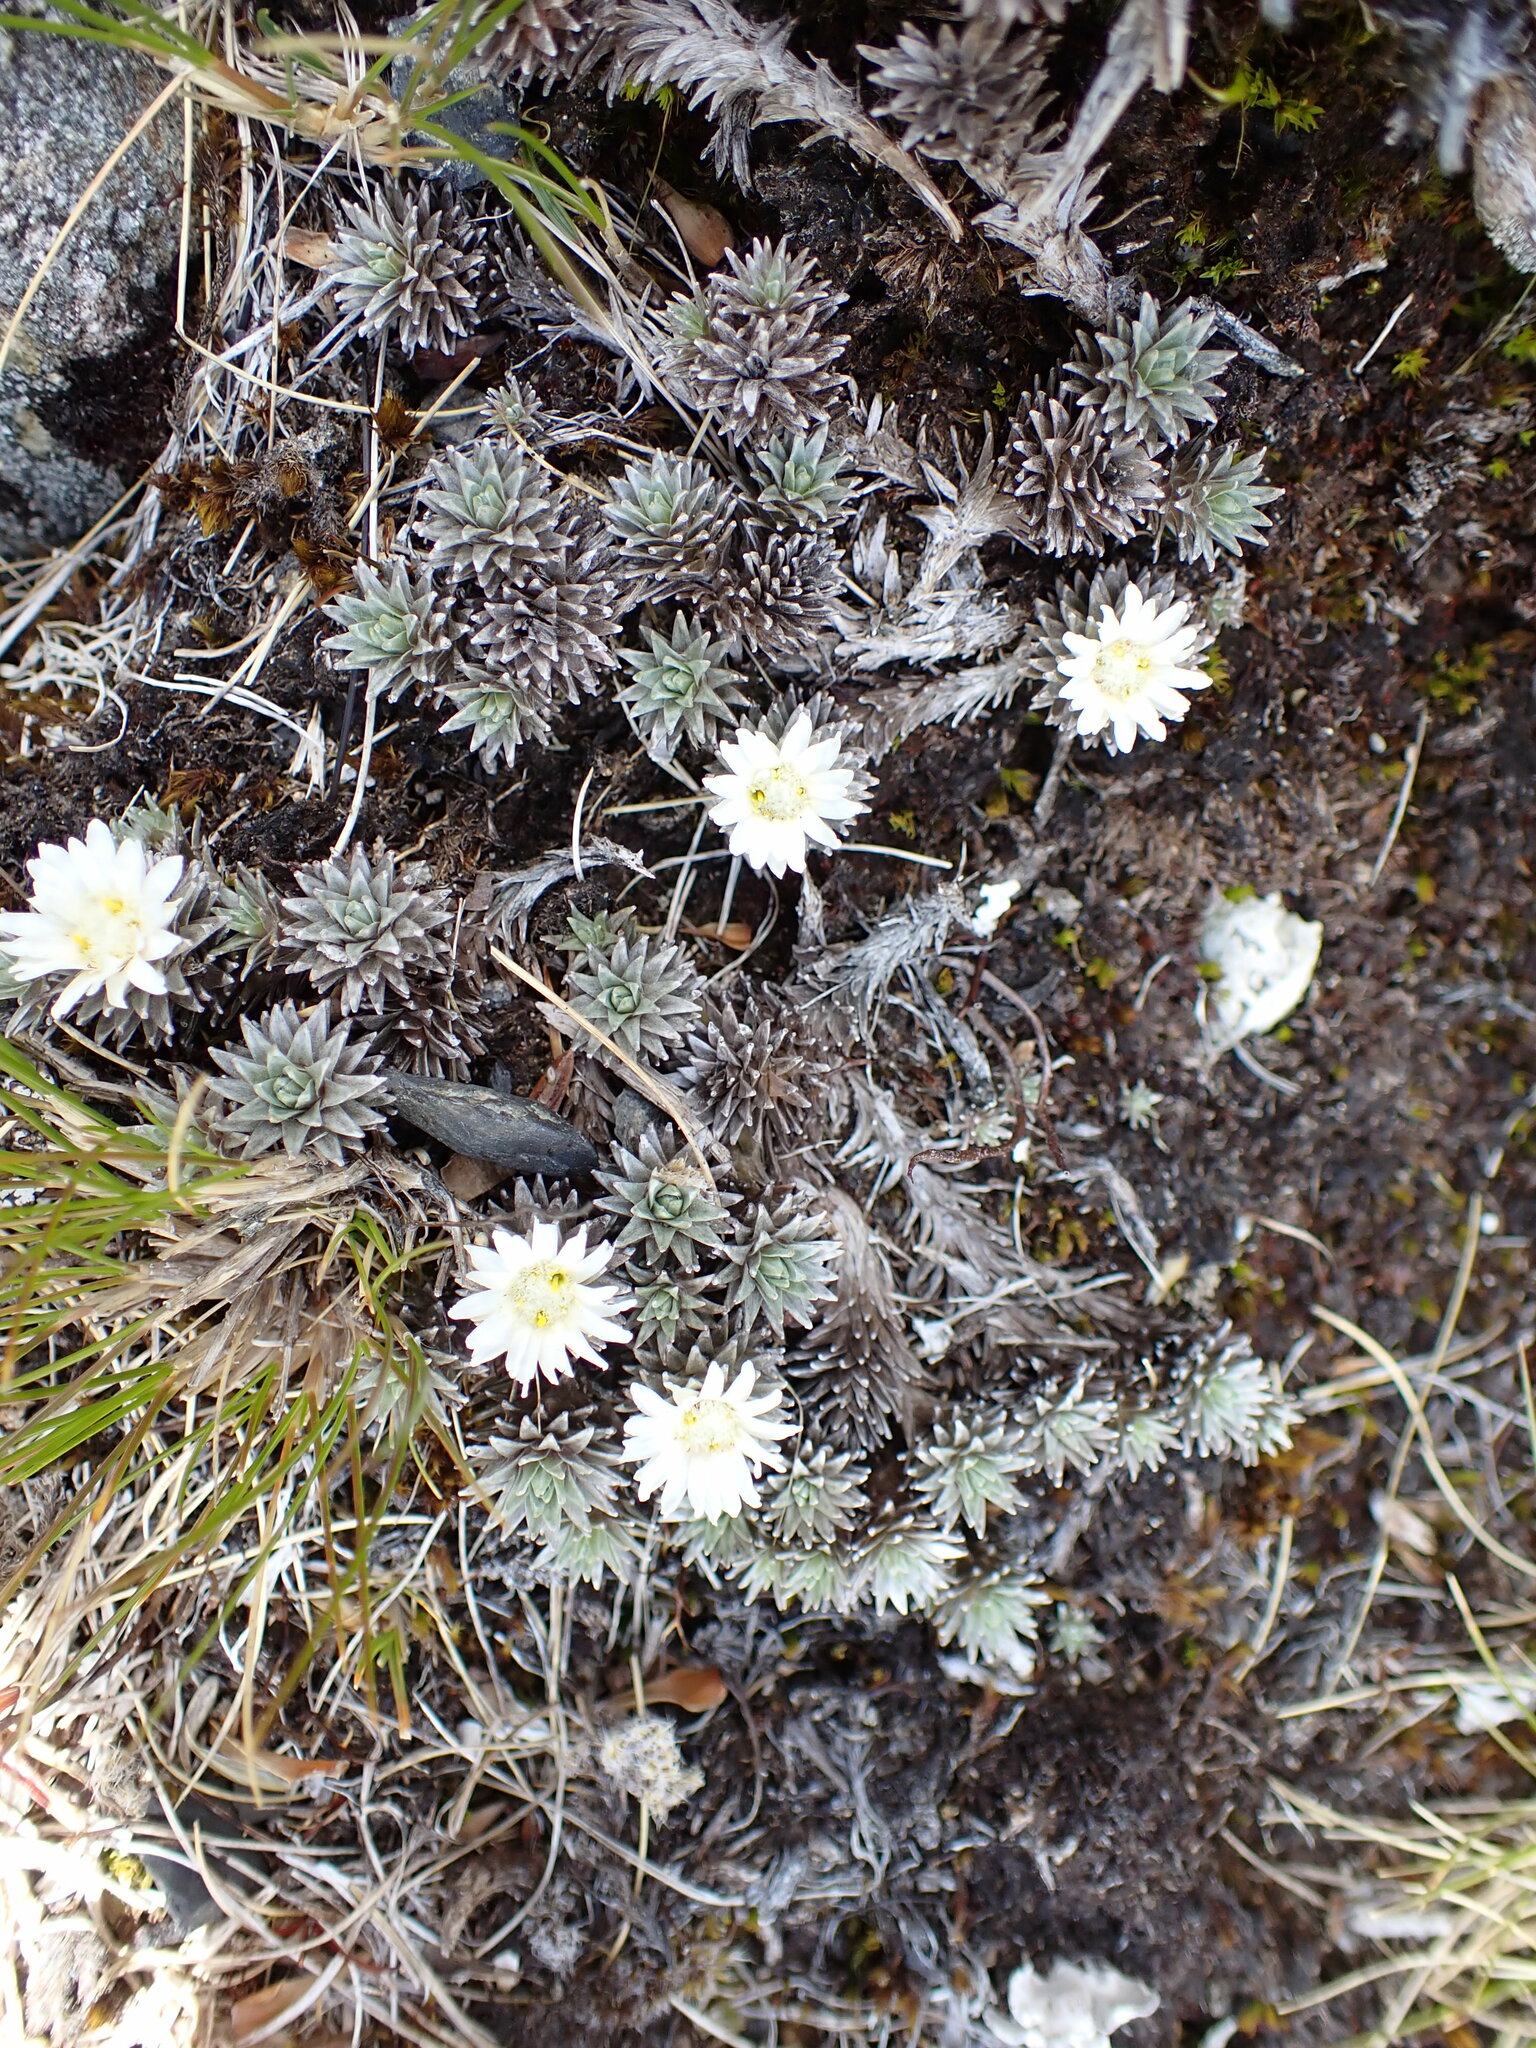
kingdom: Plantae
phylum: Tracheophyta
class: Magnoliopsida
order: Asterales
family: Asteraceae
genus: Raoulia
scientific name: Raoulia grandiflora
